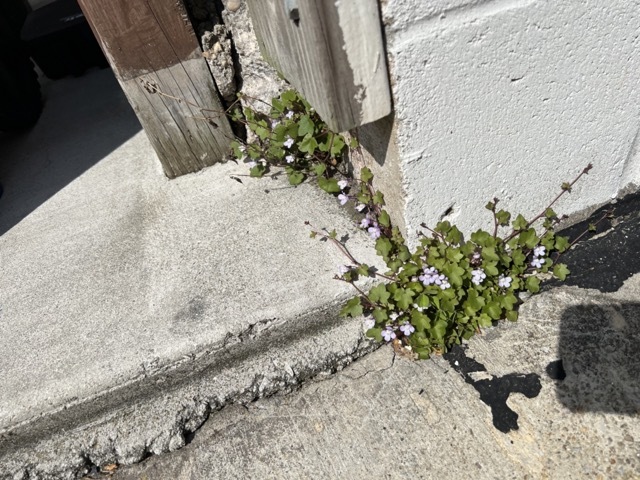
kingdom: Plantae
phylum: Tracheophyta
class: Magnoliopsida
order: Lamiales
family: Plantaginaceae
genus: Cymbalaria
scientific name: Cymbalaria muralis
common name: Ivy-leaved toadflax
